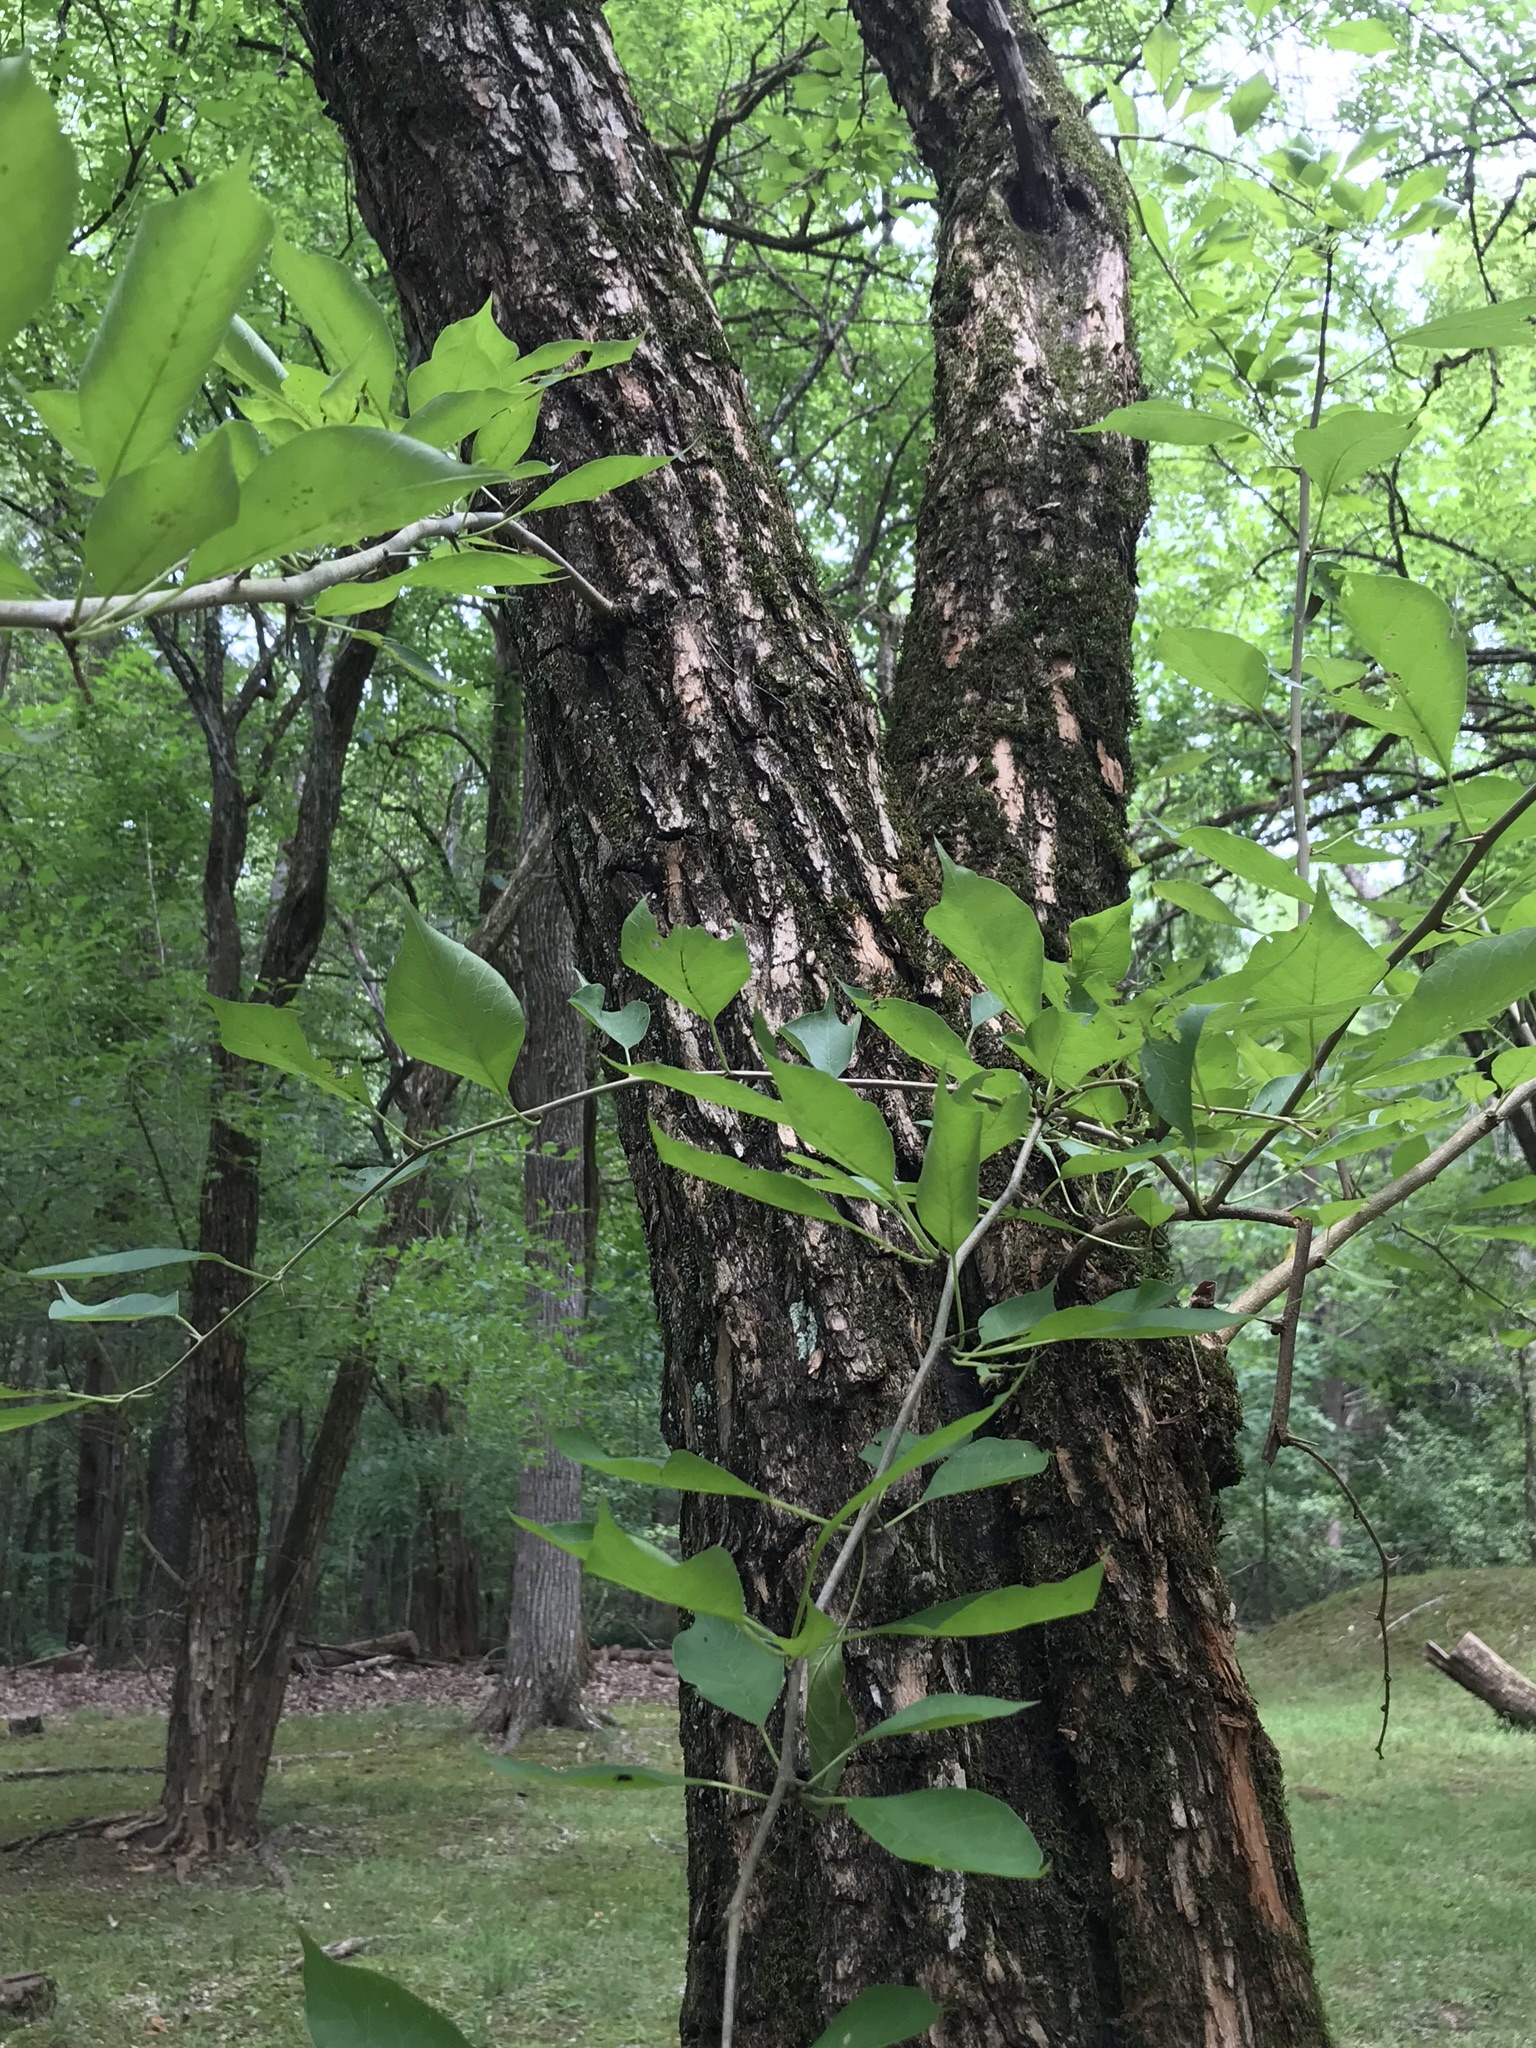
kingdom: Plantae
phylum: Tracheophyta
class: Magnoliopsida
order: Rosales
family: Moraceae
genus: Maclura
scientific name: Maclura pomifera
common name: Osage-orange
